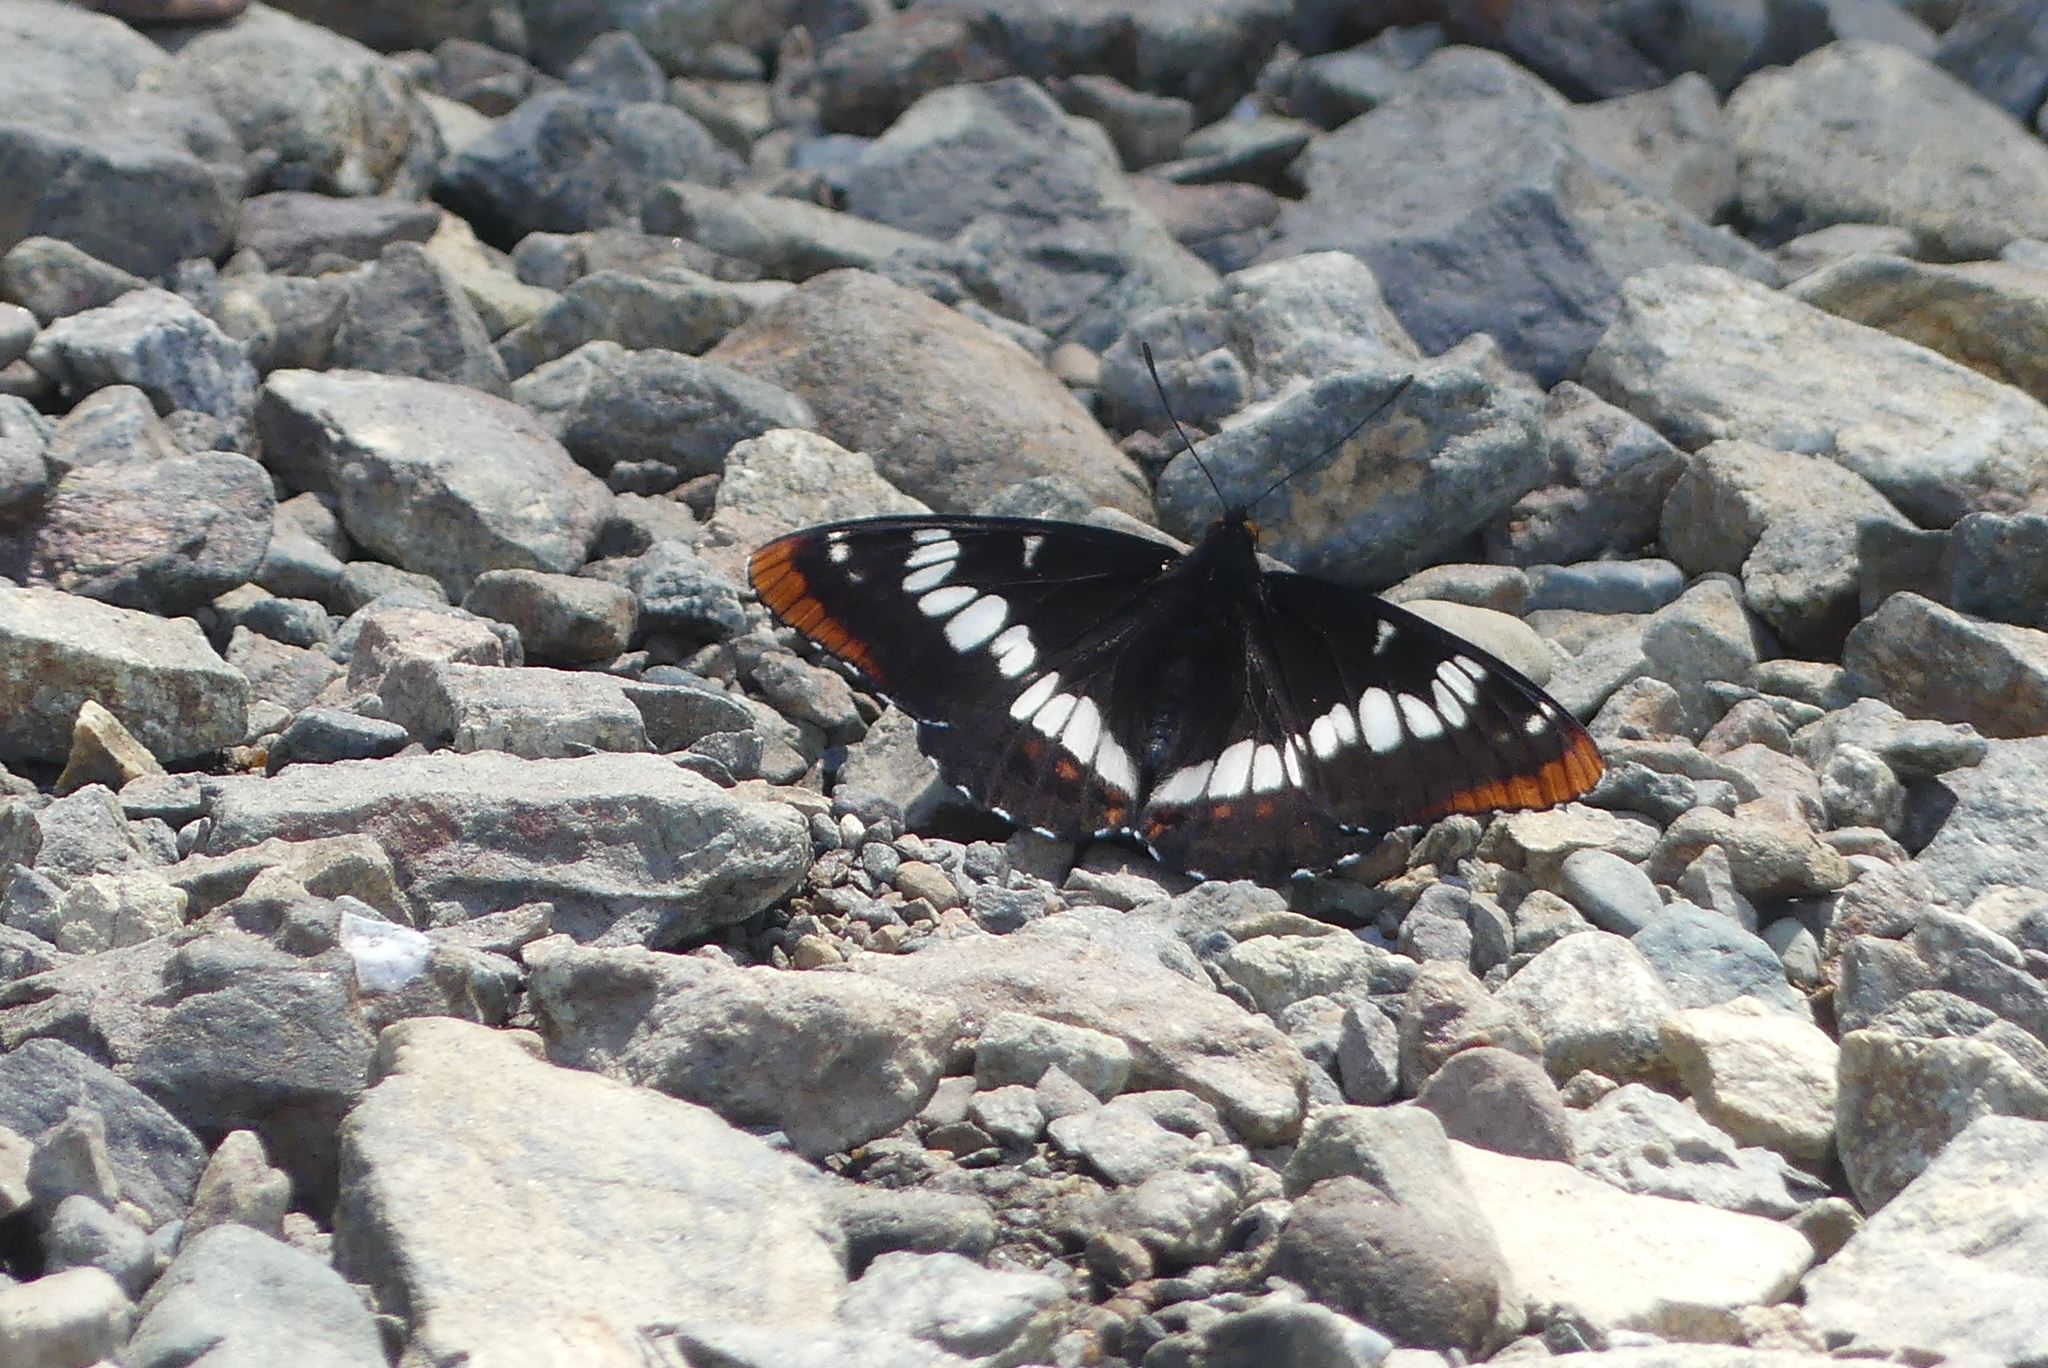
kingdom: Animalia
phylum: Arthropoda
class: Insecta
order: Lepidoptera
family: Nymphalidae
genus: Limenitis
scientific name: Limenitis lorquini
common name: Lorquin's admiral
